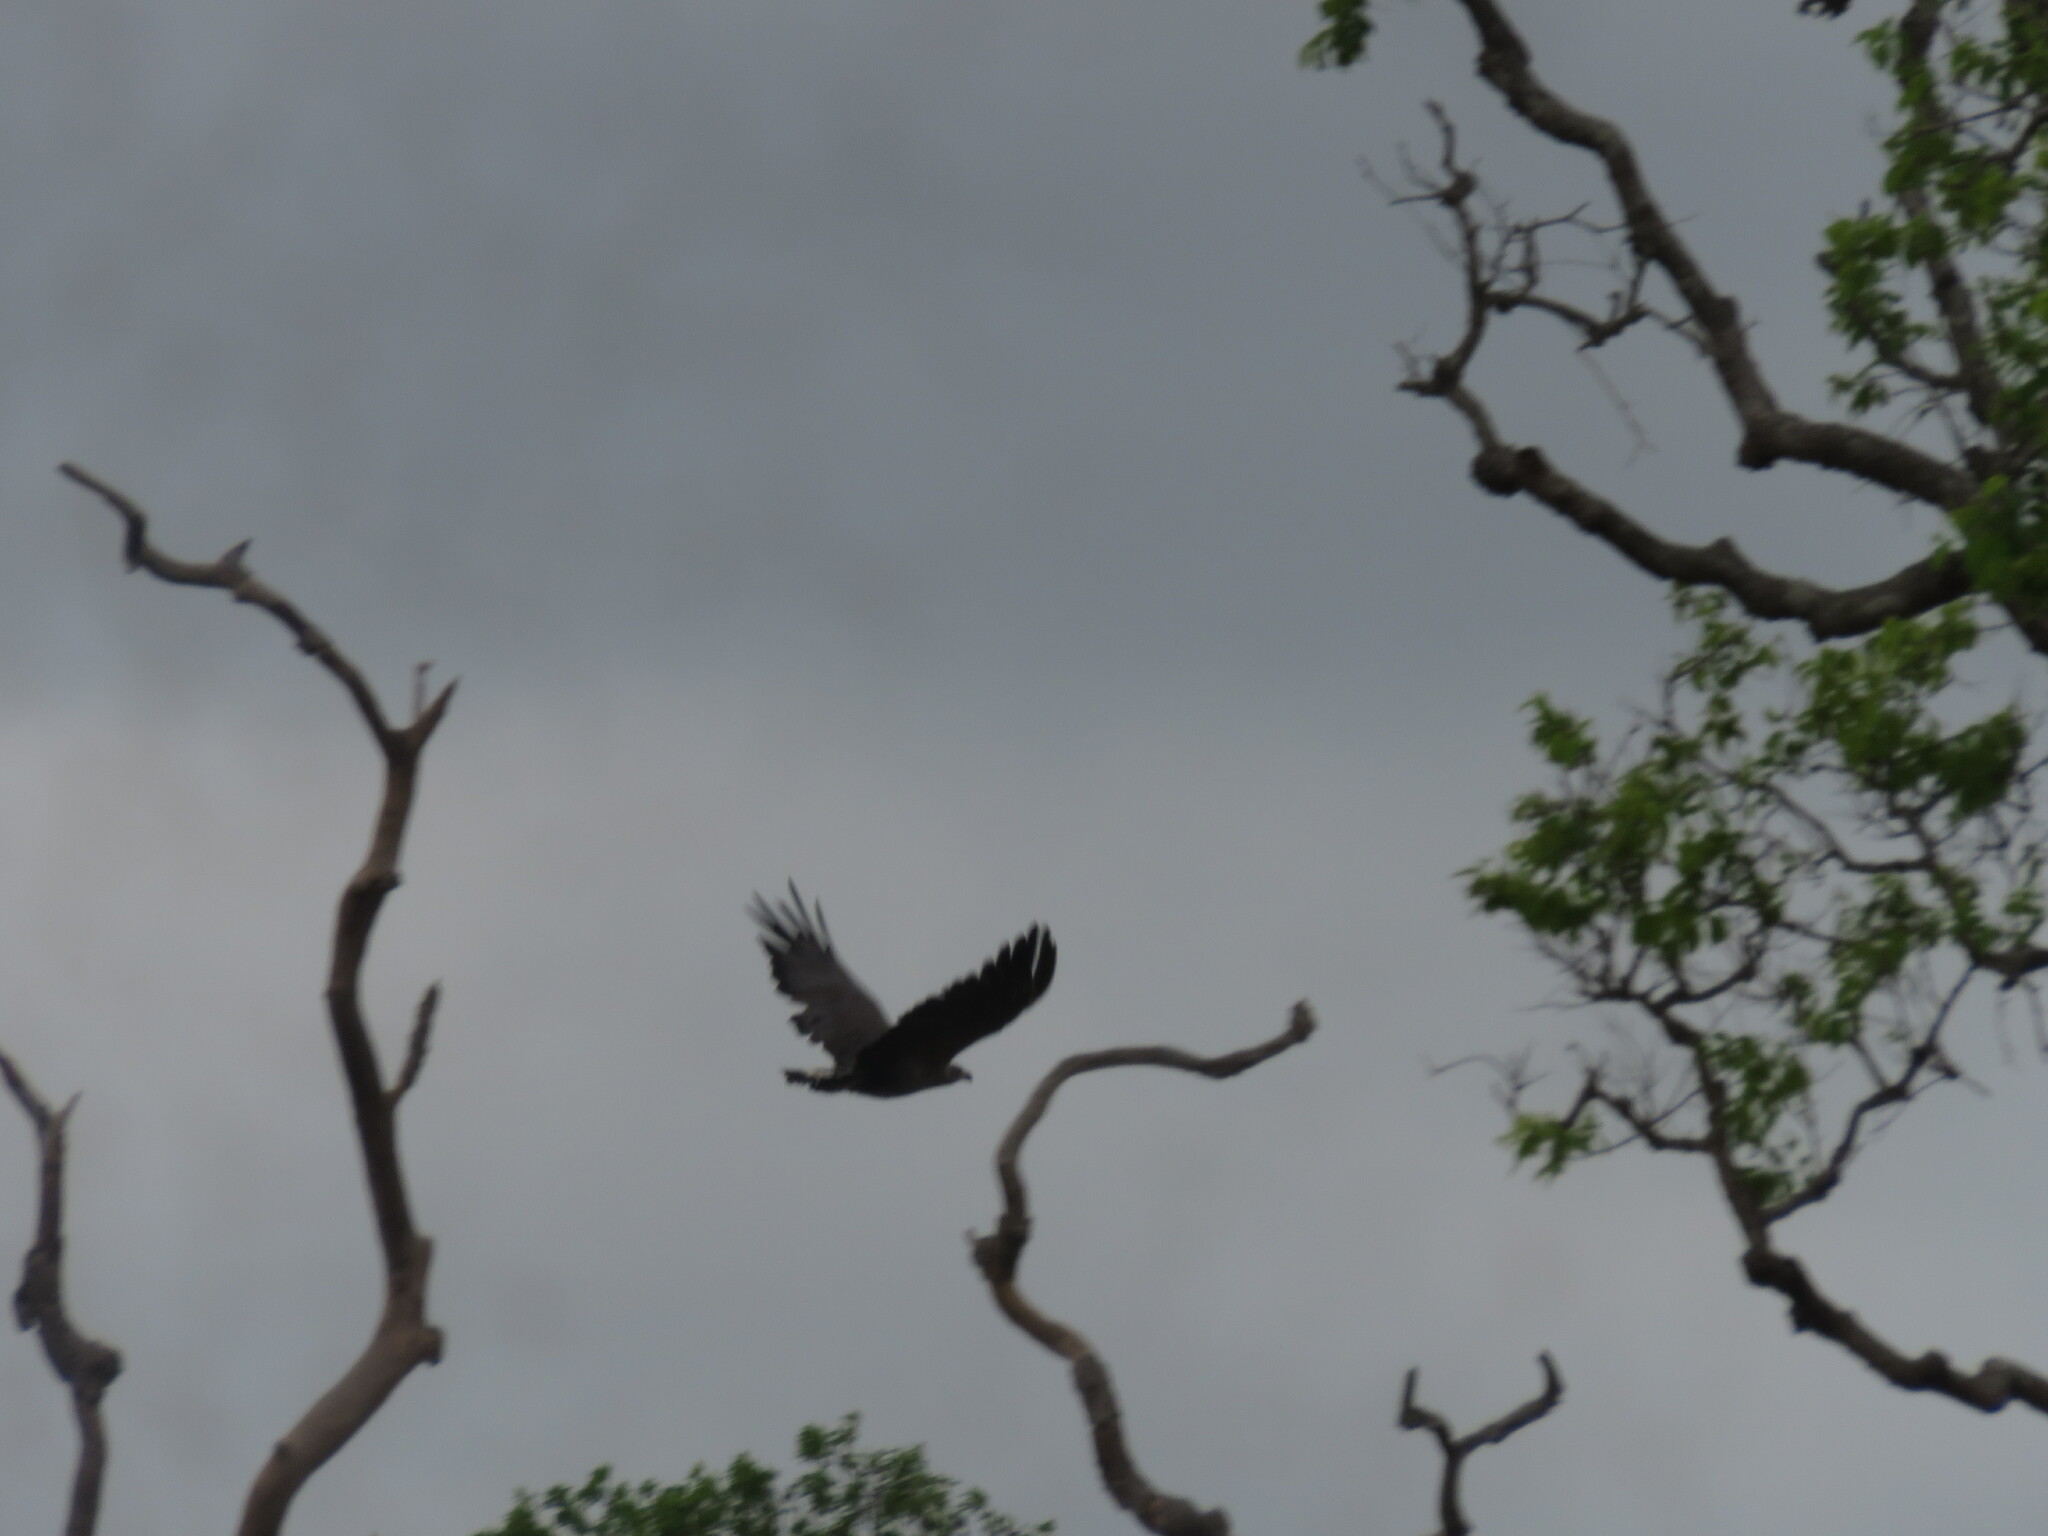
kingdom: Animalia
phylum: Chordata
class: Aves
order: Accipitriformes
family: Accipitridae
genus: Harpyhaliaetus
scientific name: Harpyhaliaetus coronatus
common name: Crowned solitary eagle
